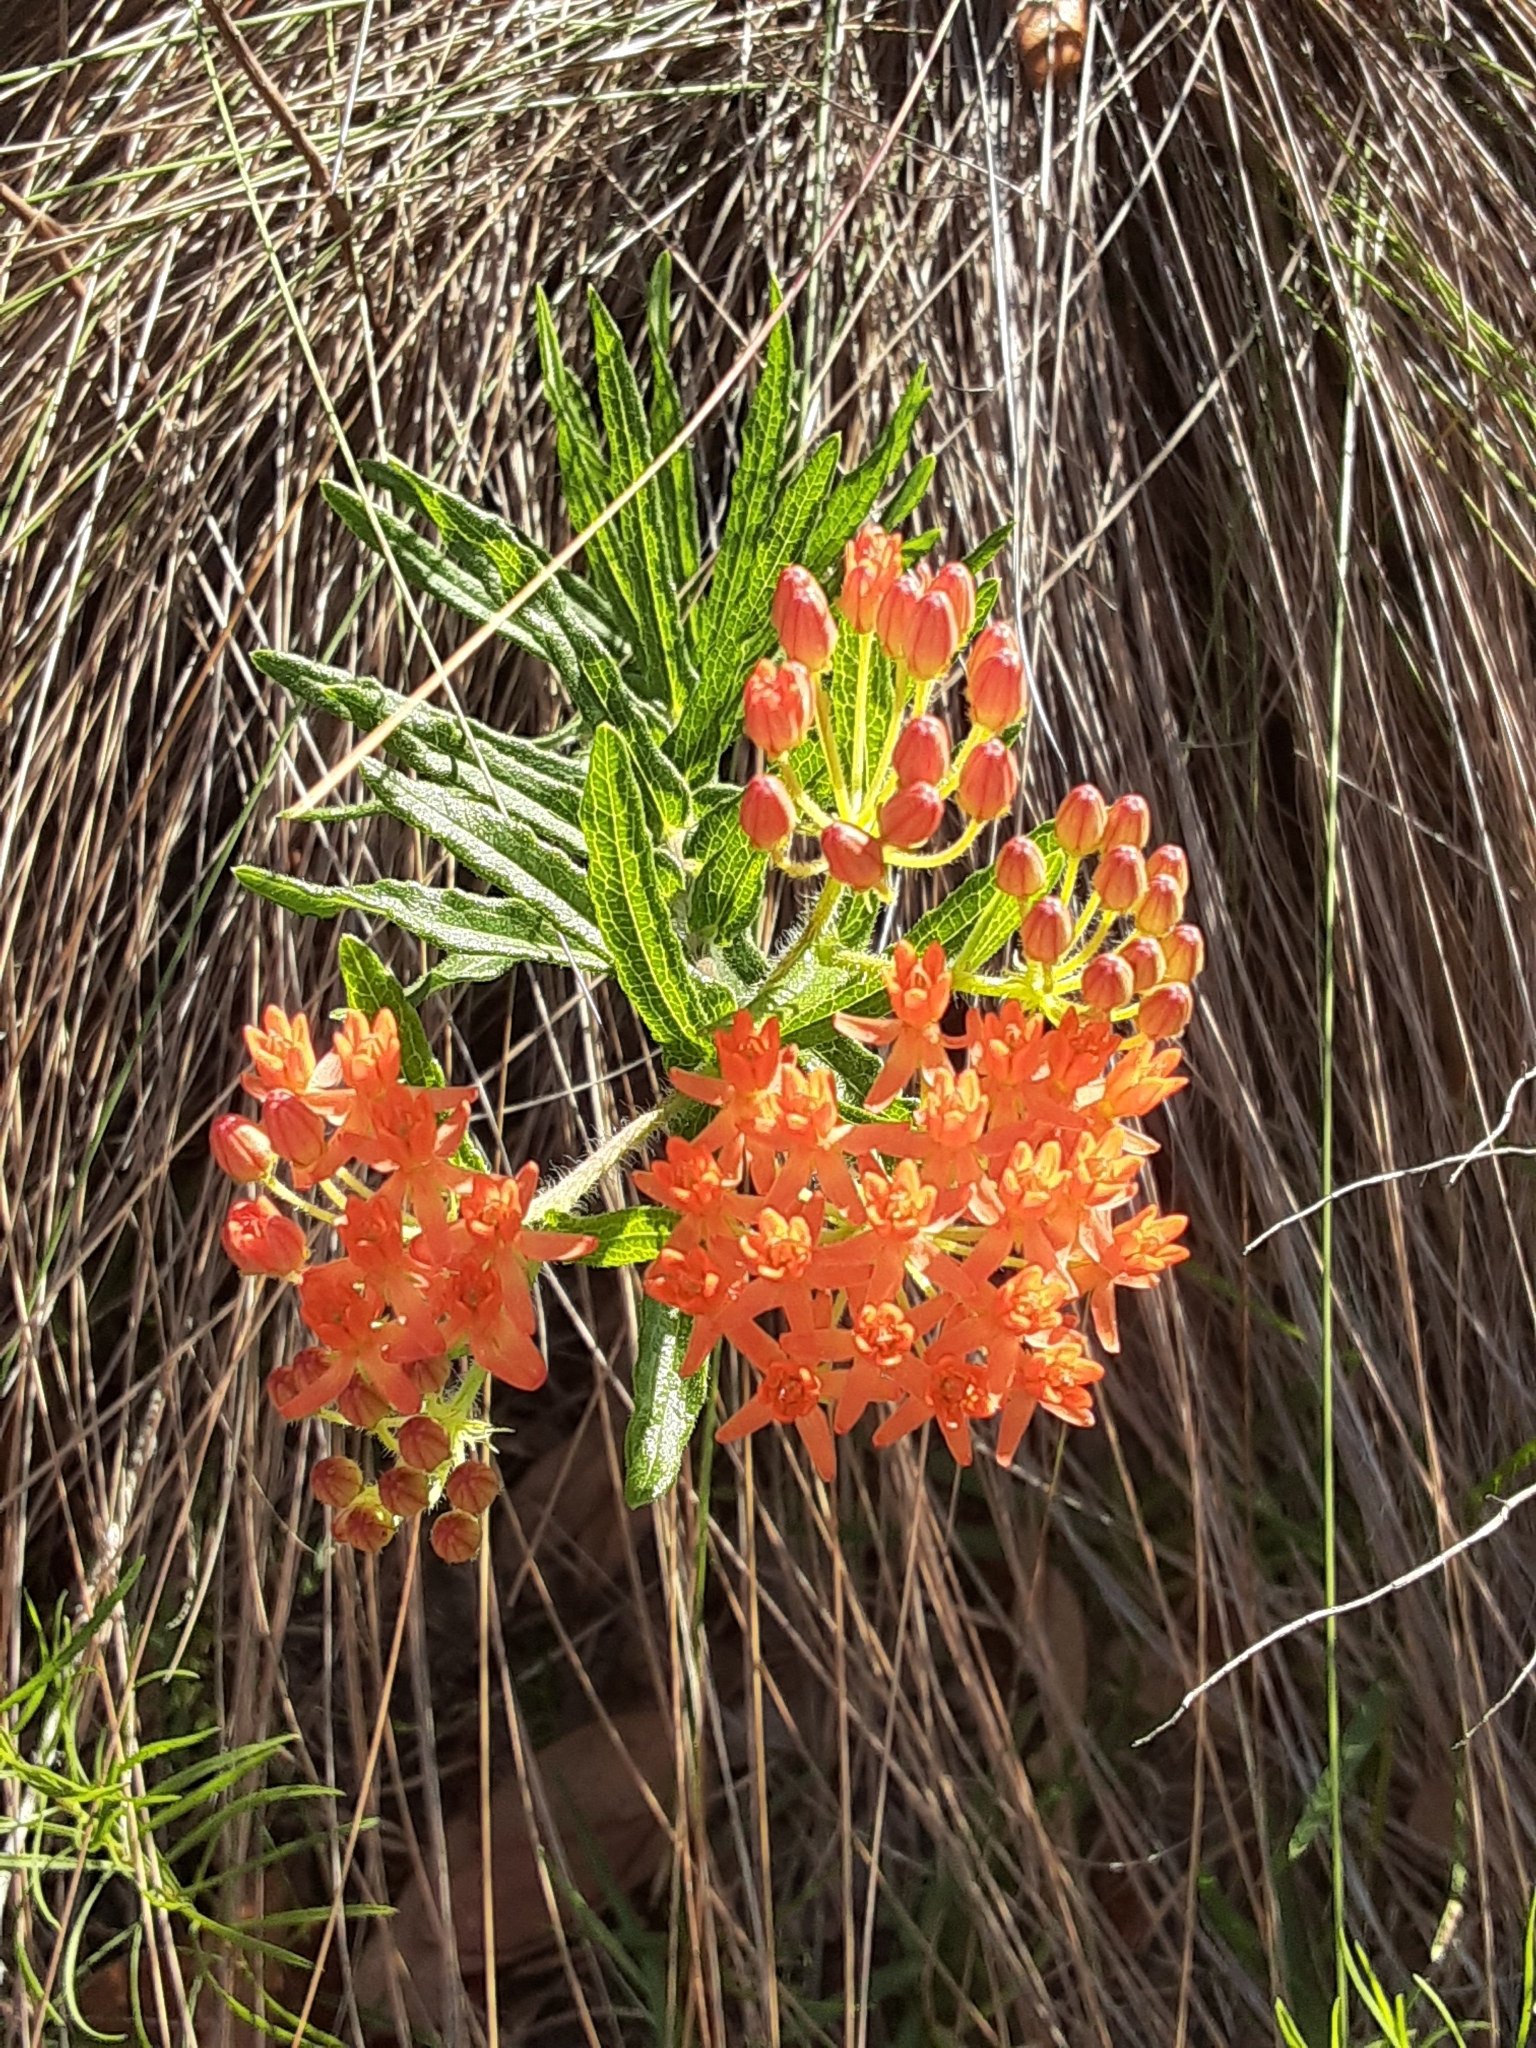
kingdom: Plantae
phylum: Tracheophyta
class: Magnoliopsida
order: Gentianales
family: Apocynaceae
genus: Asclepias
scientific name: Asclepias tuberosa
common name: Butterfly milkweed
